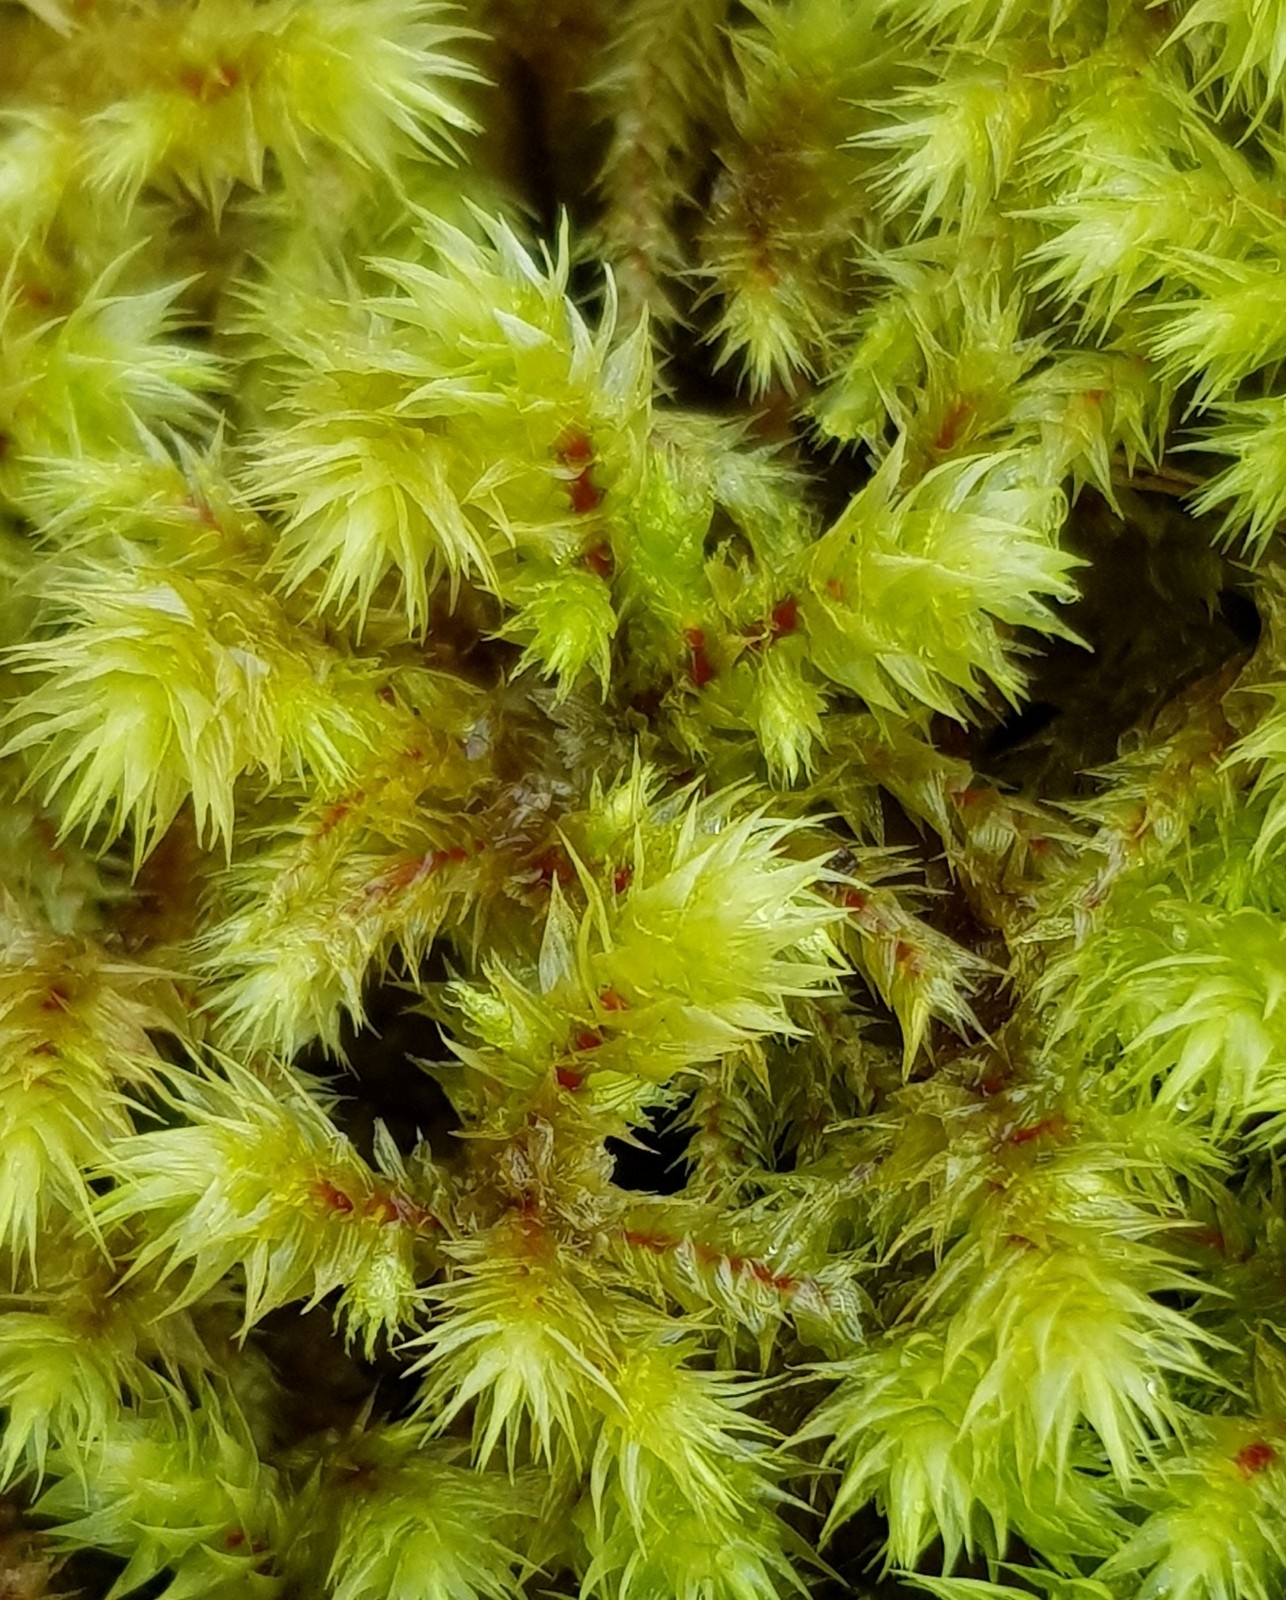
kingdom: Plantae
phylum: Bryophyta
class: Bryopsida
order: Hypnales
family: Hylocomiaceae
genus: Hylocomiadelphus
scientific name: Hylocomiadelphus triquetrus
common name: Rough goose neck moss
